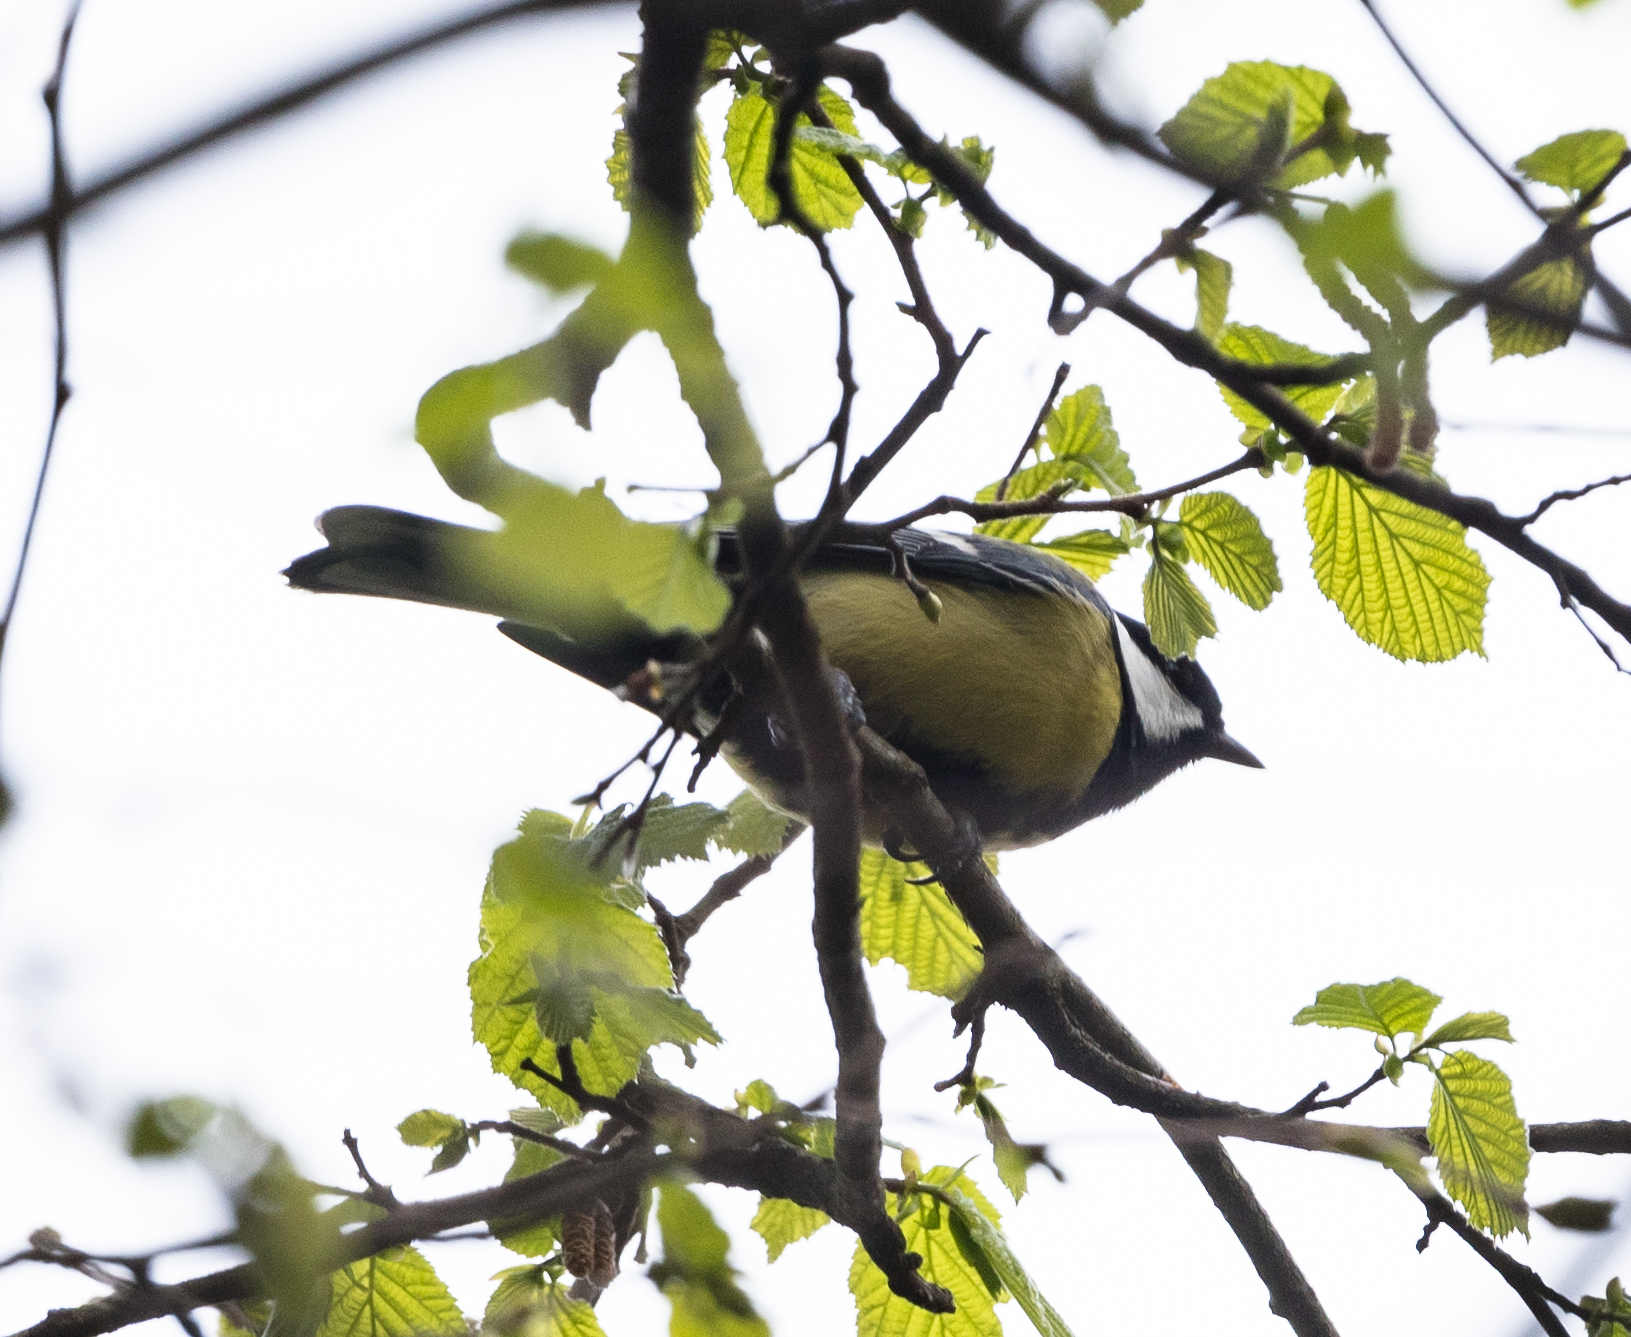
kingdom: Animalia
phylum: Chordata
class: Aves
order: Passeriformes
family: Paridae
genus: Parus
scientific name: Parus major
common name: Great tit
